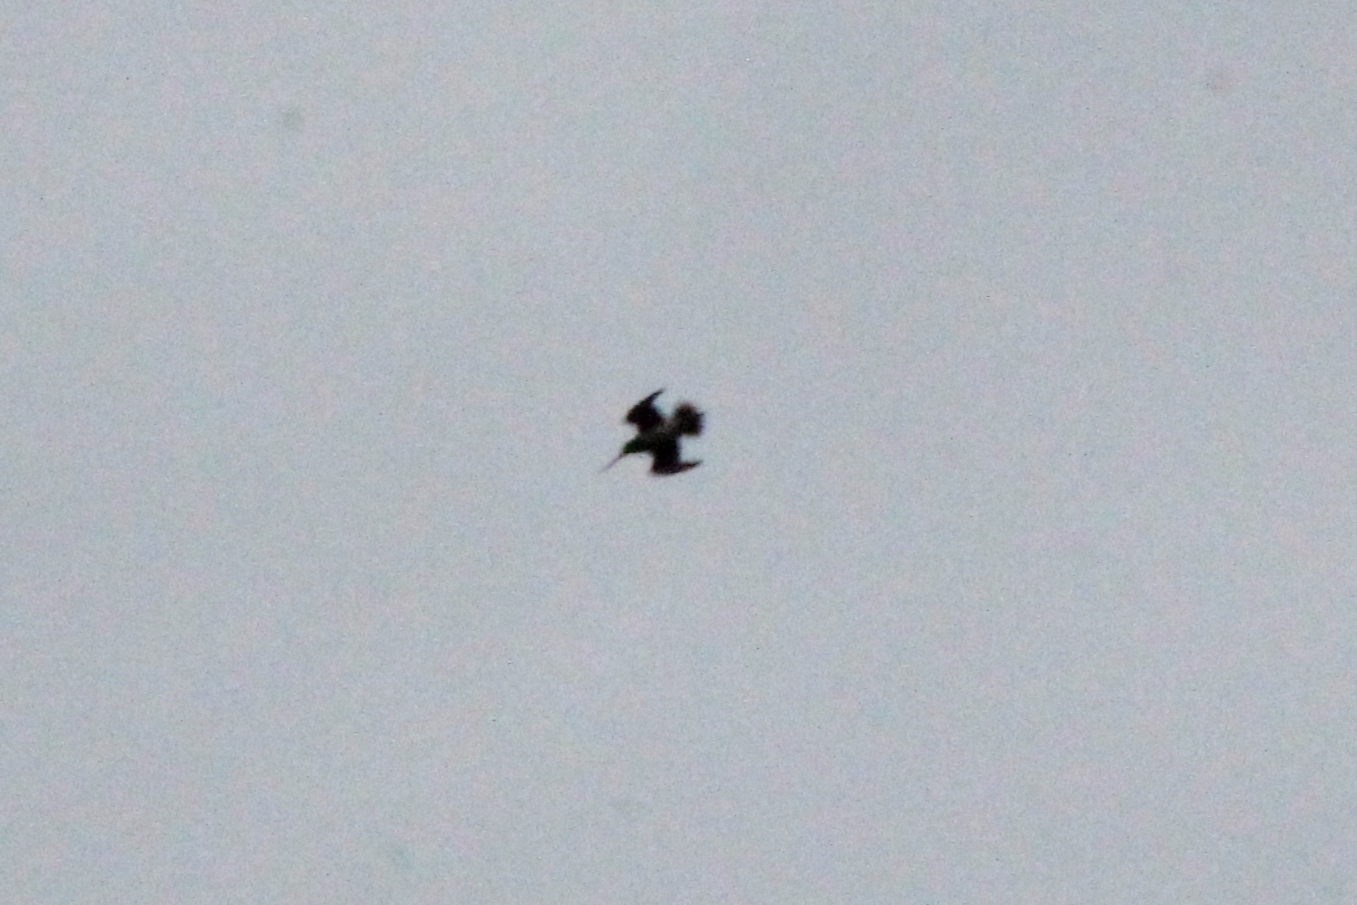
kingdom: Animalia
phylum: Chordata
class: Aves
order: Charadriiformes
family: Scolopacidae
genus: Gallinago
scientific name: Gallinago delicata
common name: Wilson's snipe
